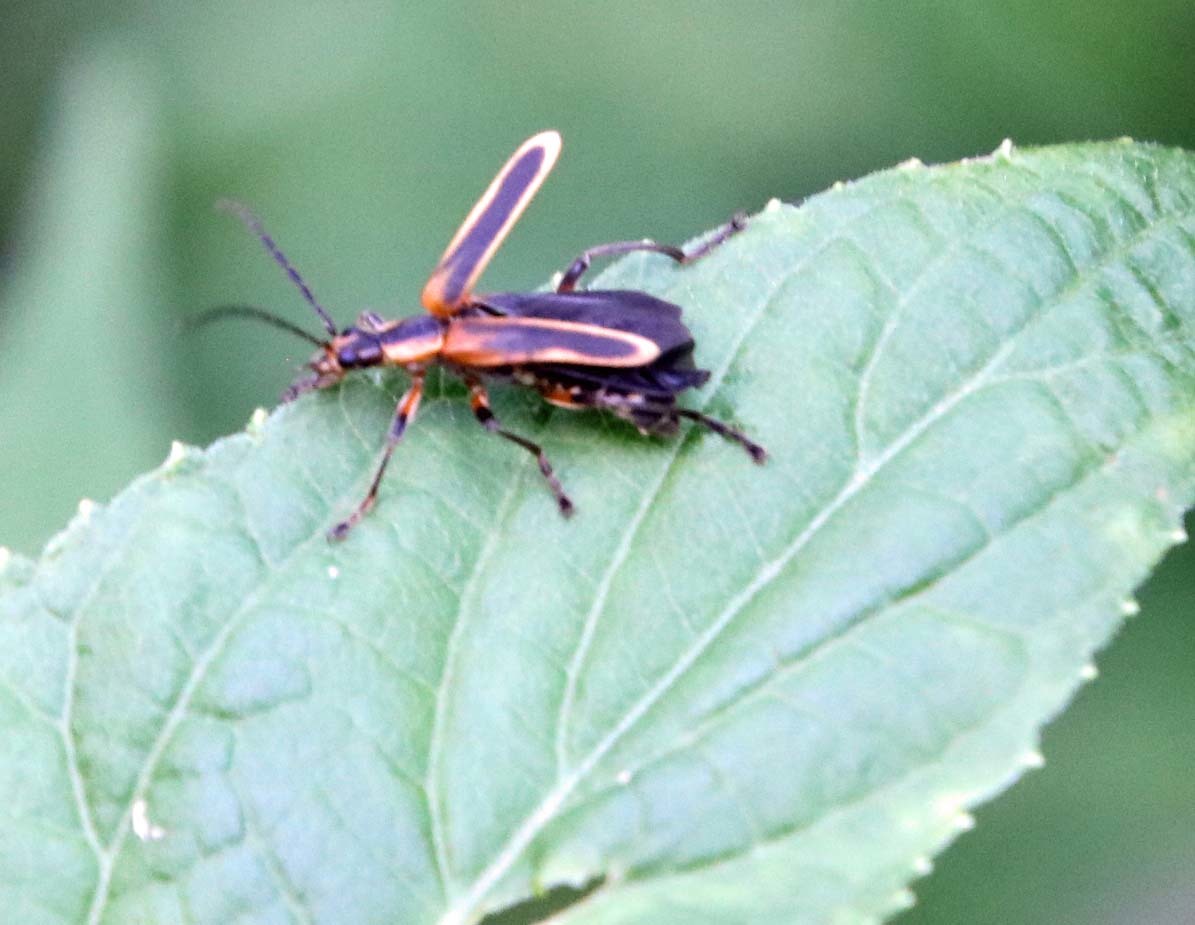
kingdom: Animalia
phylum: Arthropoda
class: Insecta
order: Coleoptera
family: Cantharidae
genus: Chauliognathus
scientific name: Chauliognathus marginatus
